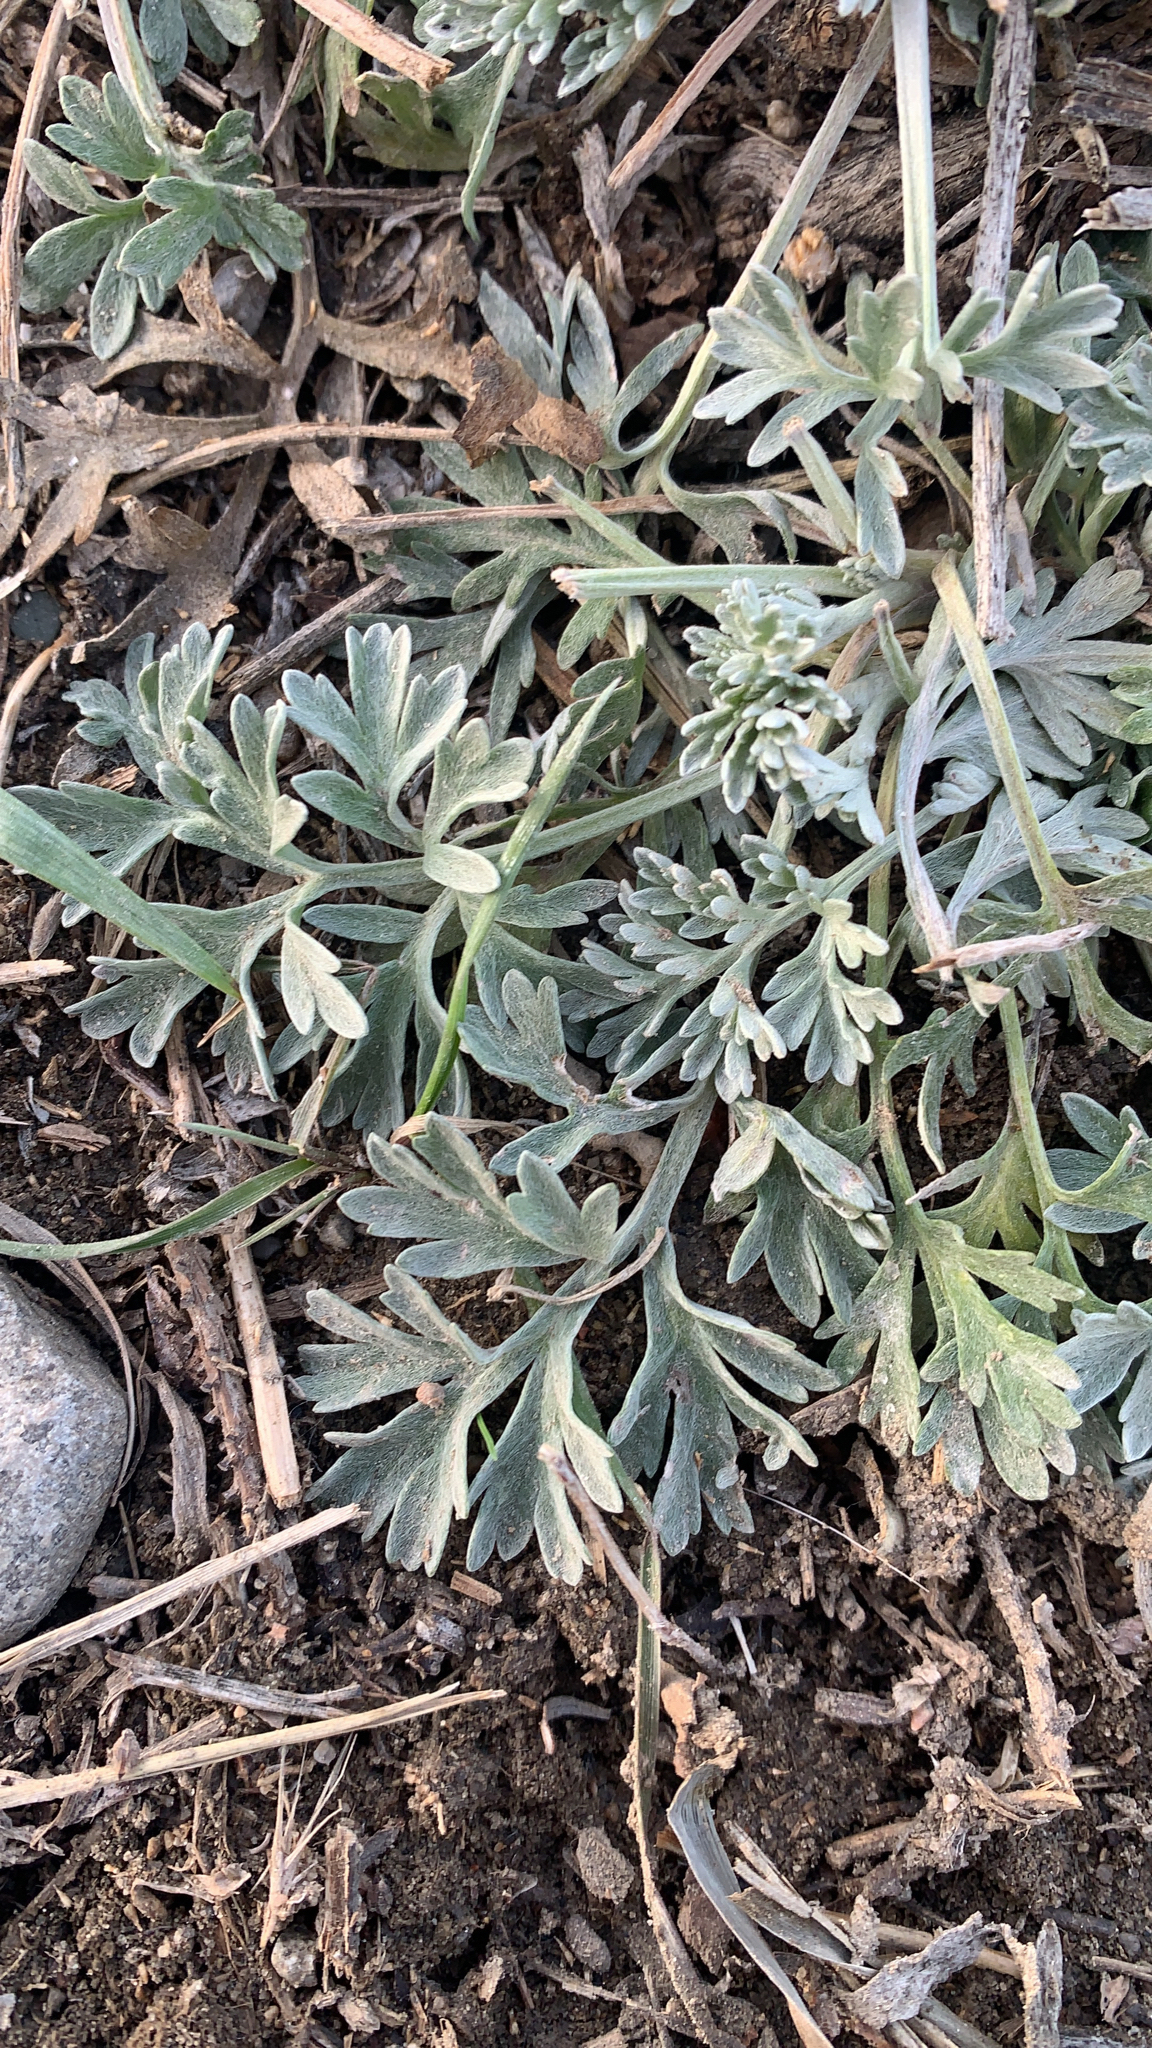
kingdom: Plantae
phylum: Tracheophyta
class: Magnoliopsida
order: Asterales
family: Asteraceae
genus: Artemisia
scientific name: Artemisia absinthium
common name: Wormwood
